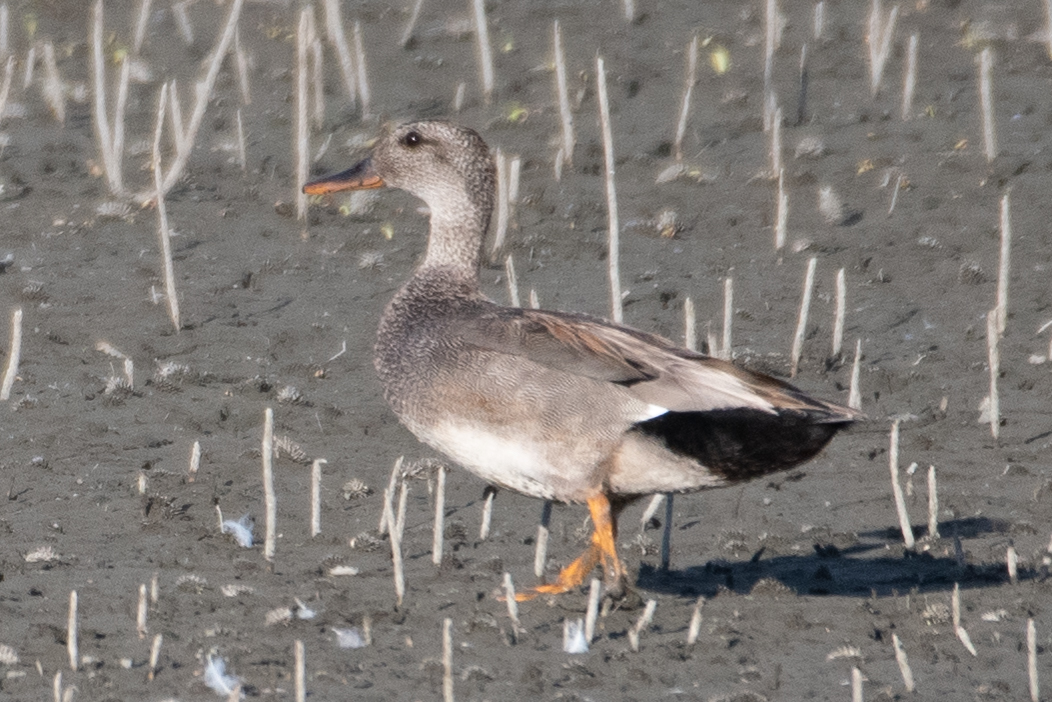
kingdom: Animalia
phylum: Chordata
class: Aves
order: Anseriformes
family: Anatidae
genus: Mareca
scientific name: Mareca strepera
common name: Gadwall
